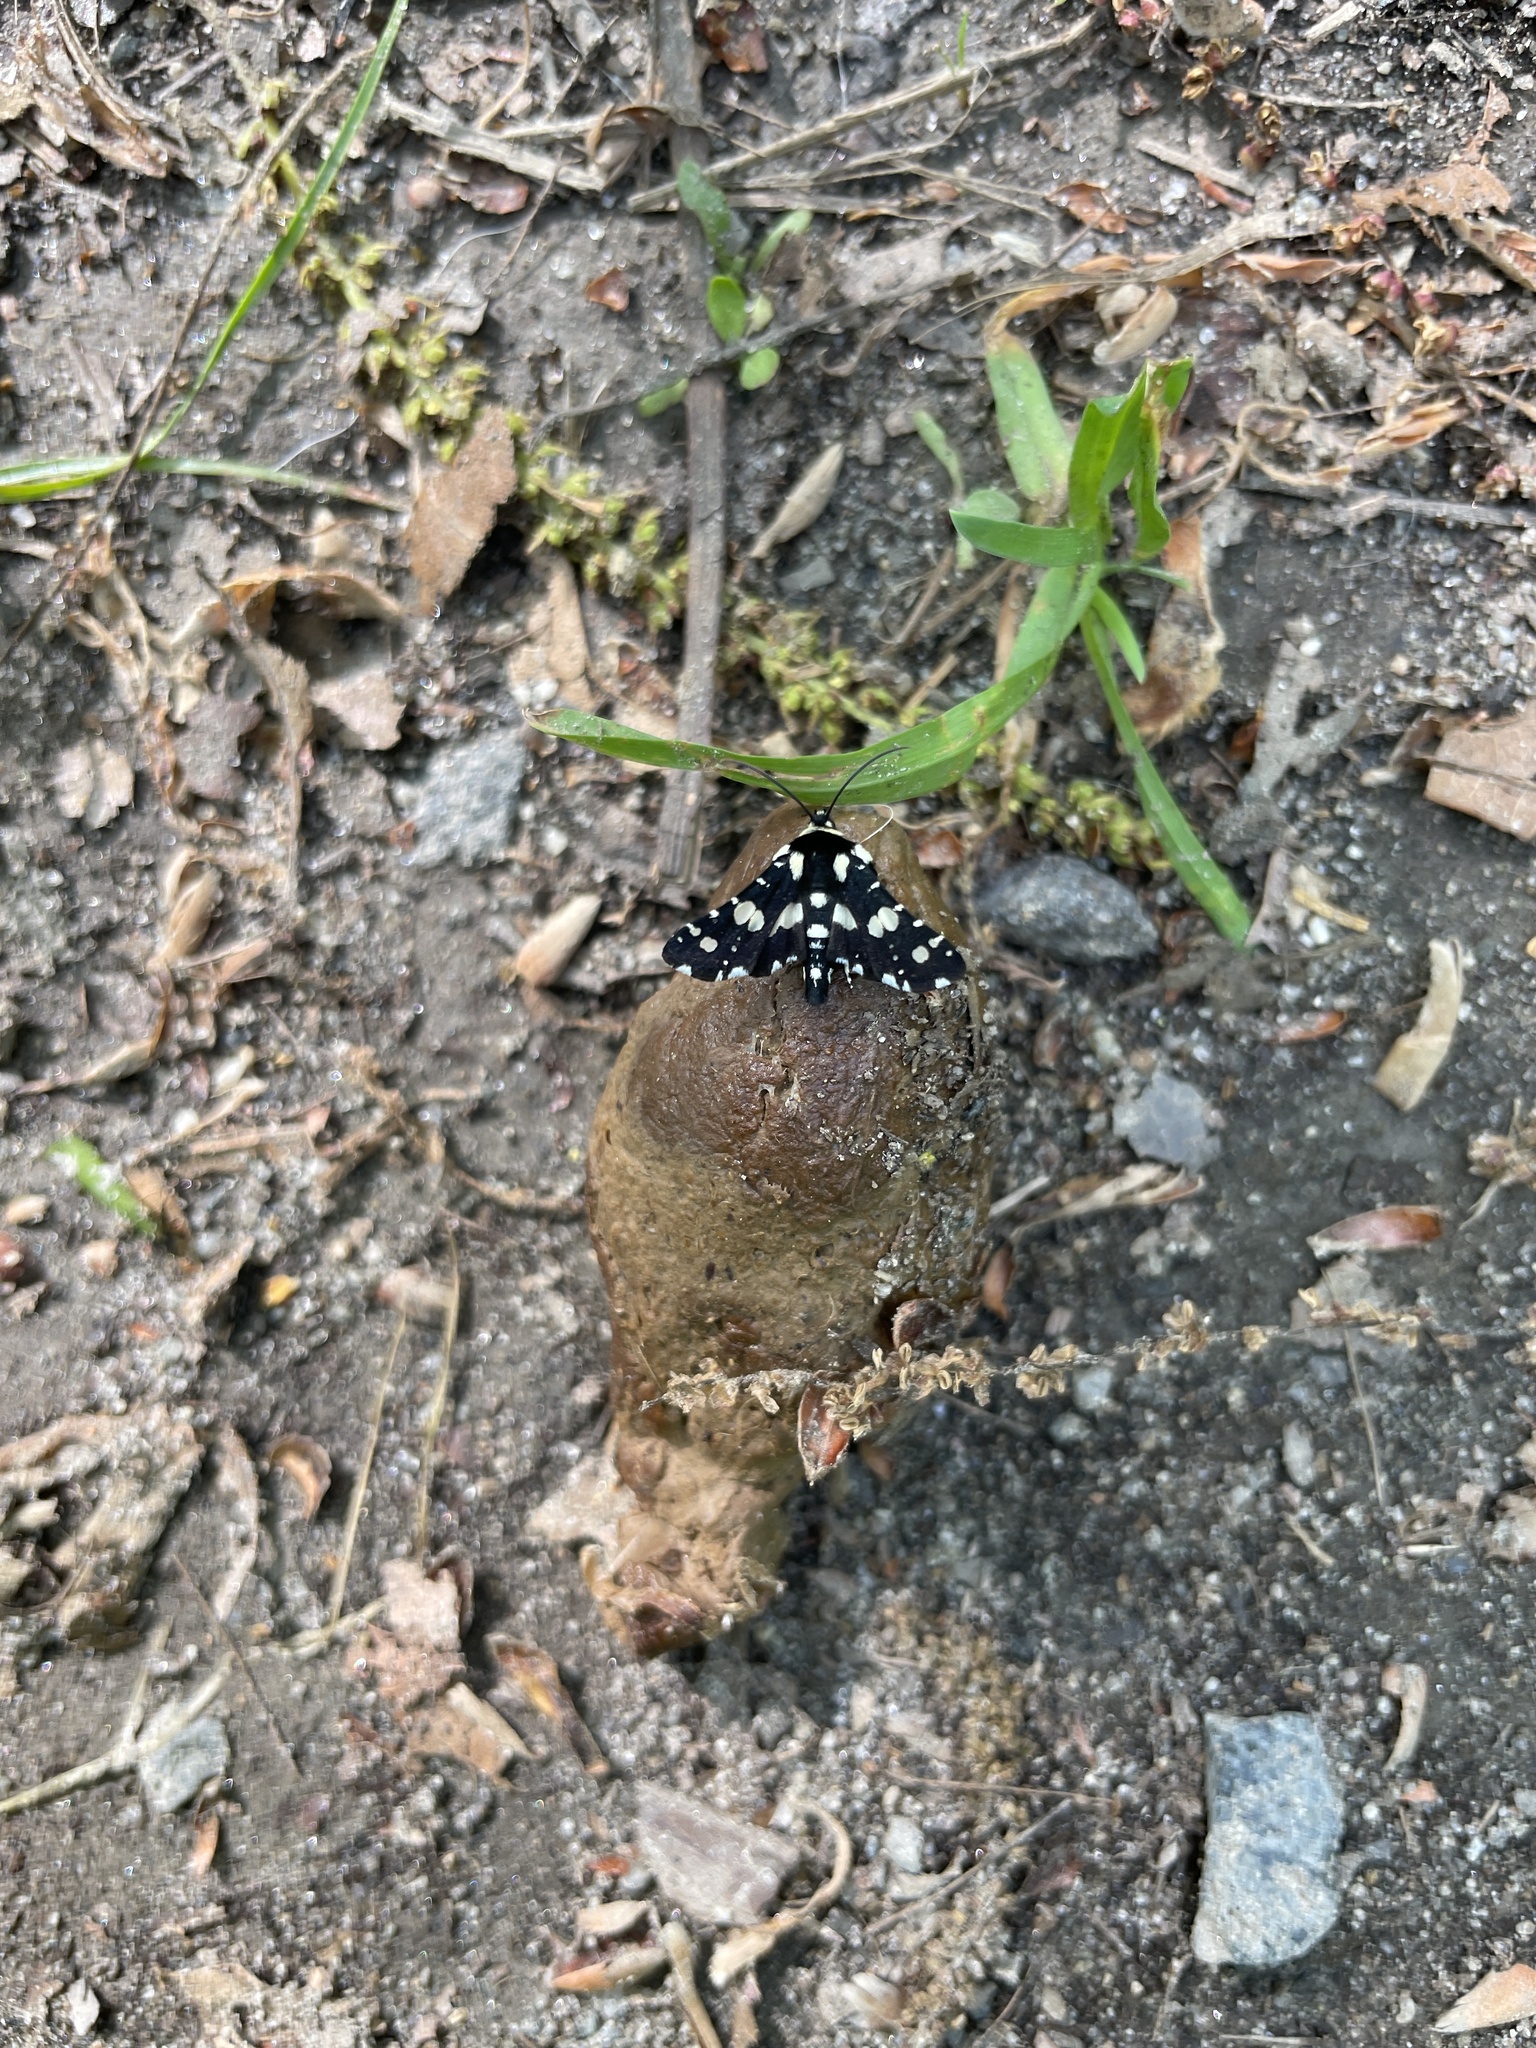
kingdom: Animalia
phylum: Arthropoda
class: Insecta
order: Lepidoptera
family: Thyrididae
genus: Pseudothyris
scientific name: Pseudothyris sepulchralis
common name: Mournful thyris moth
